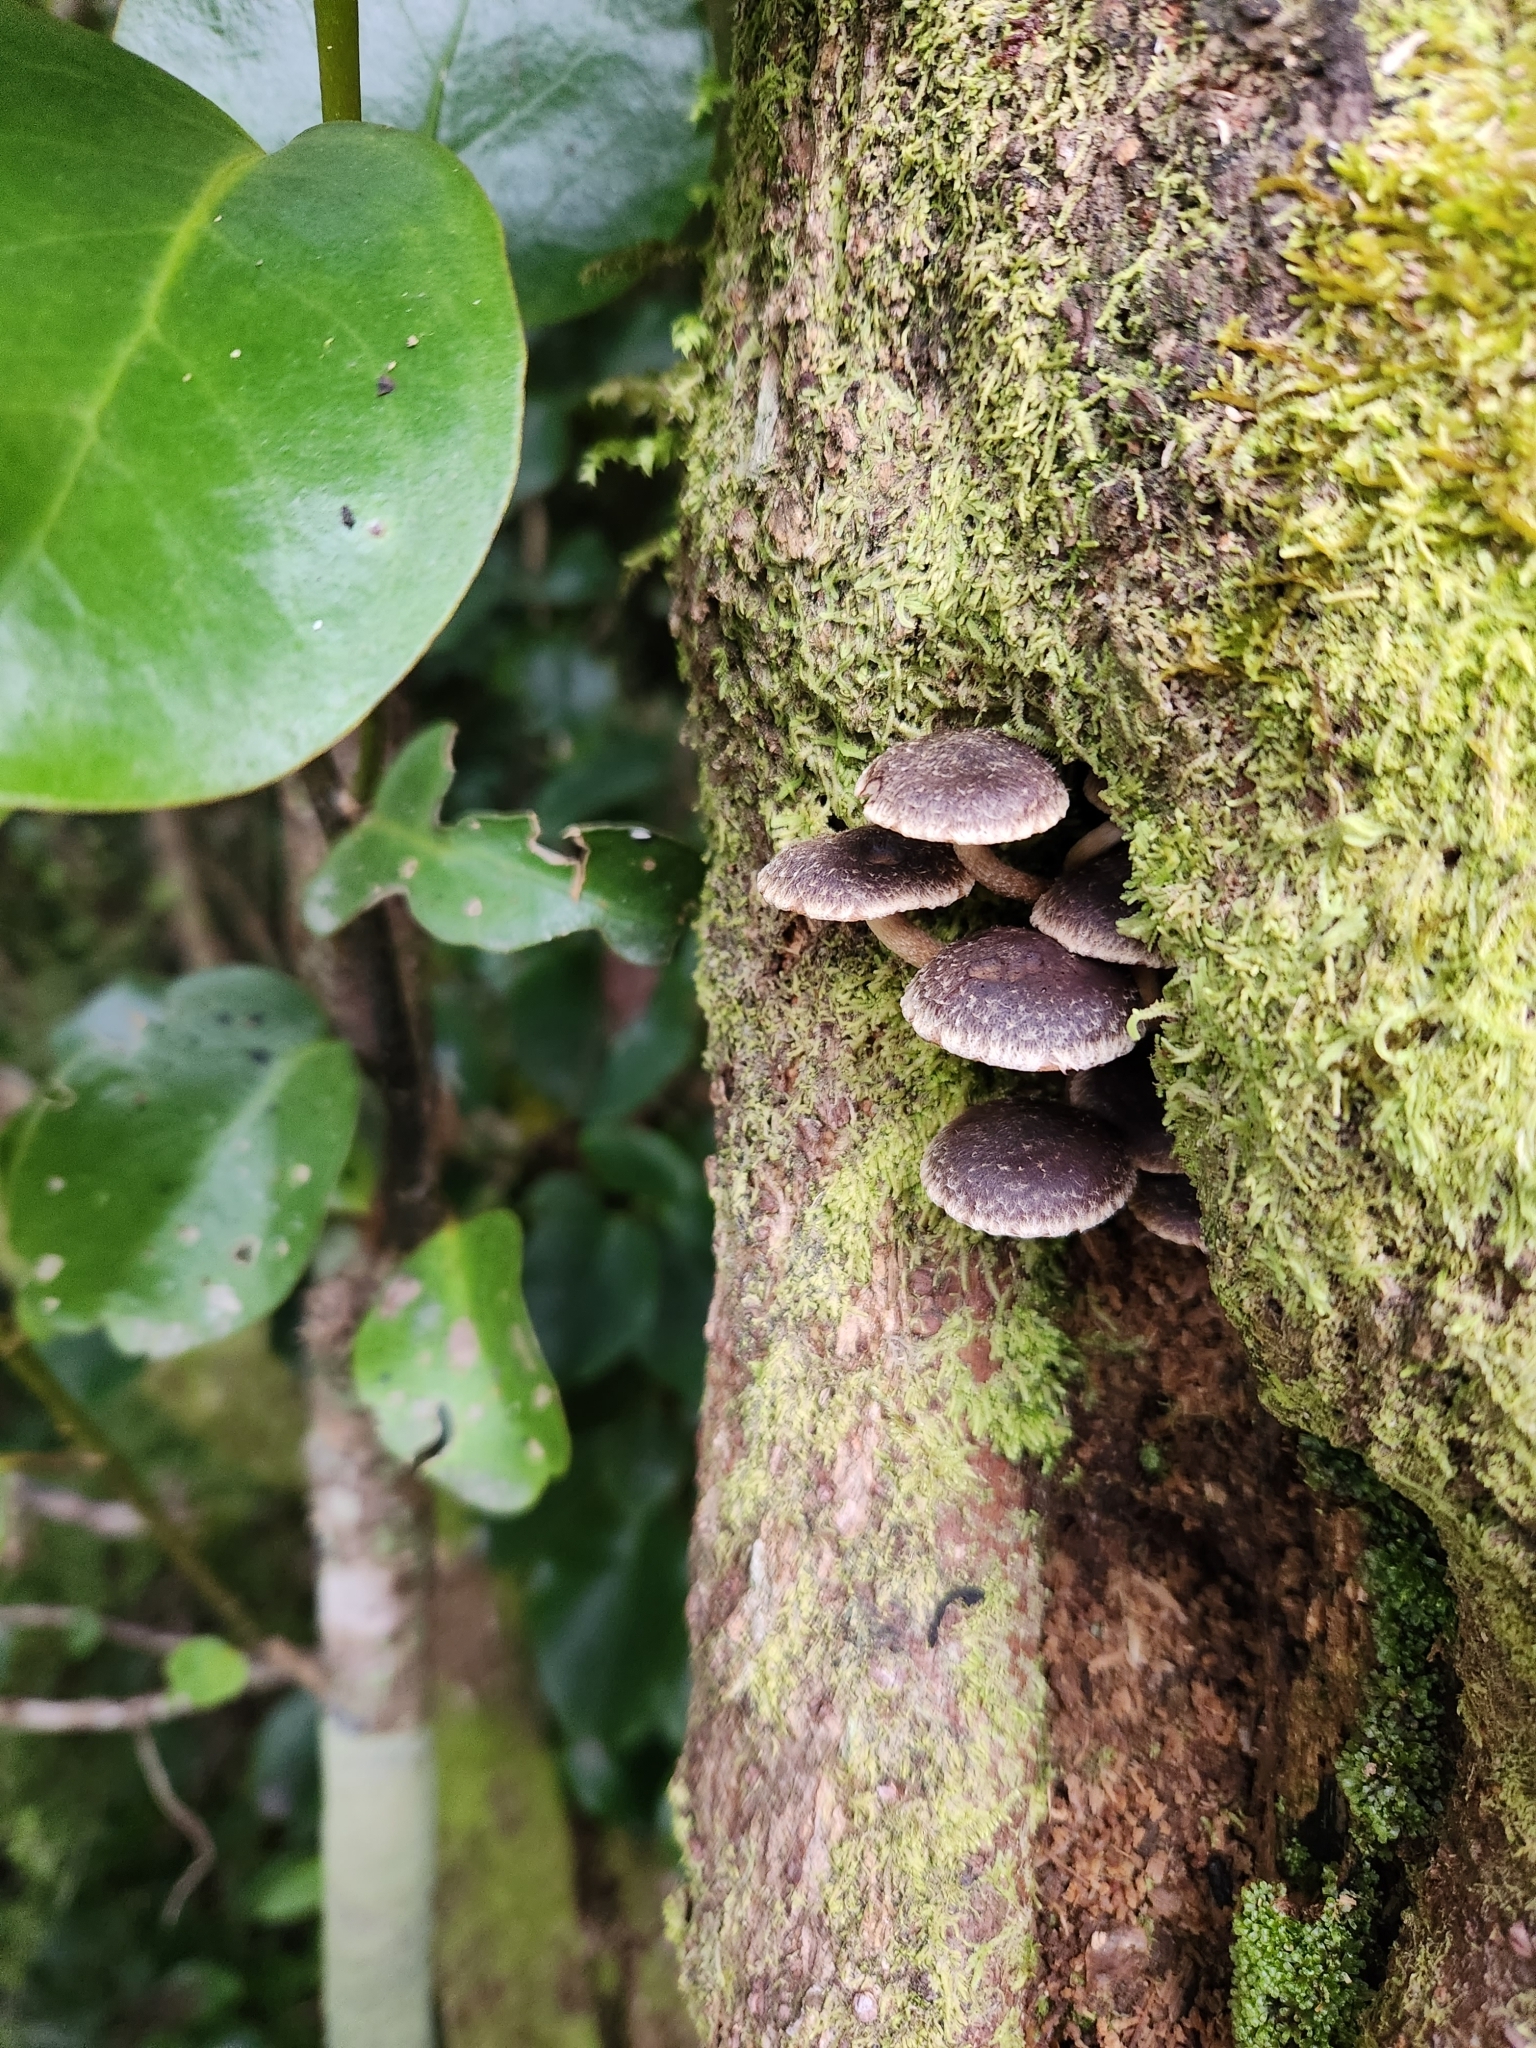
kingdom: Fungi
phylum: Basidiomycota
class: Agaricomycetes
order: Agaricales
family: Strophariaceae
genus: Hypholoma
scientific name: Hypholoma brunneum
